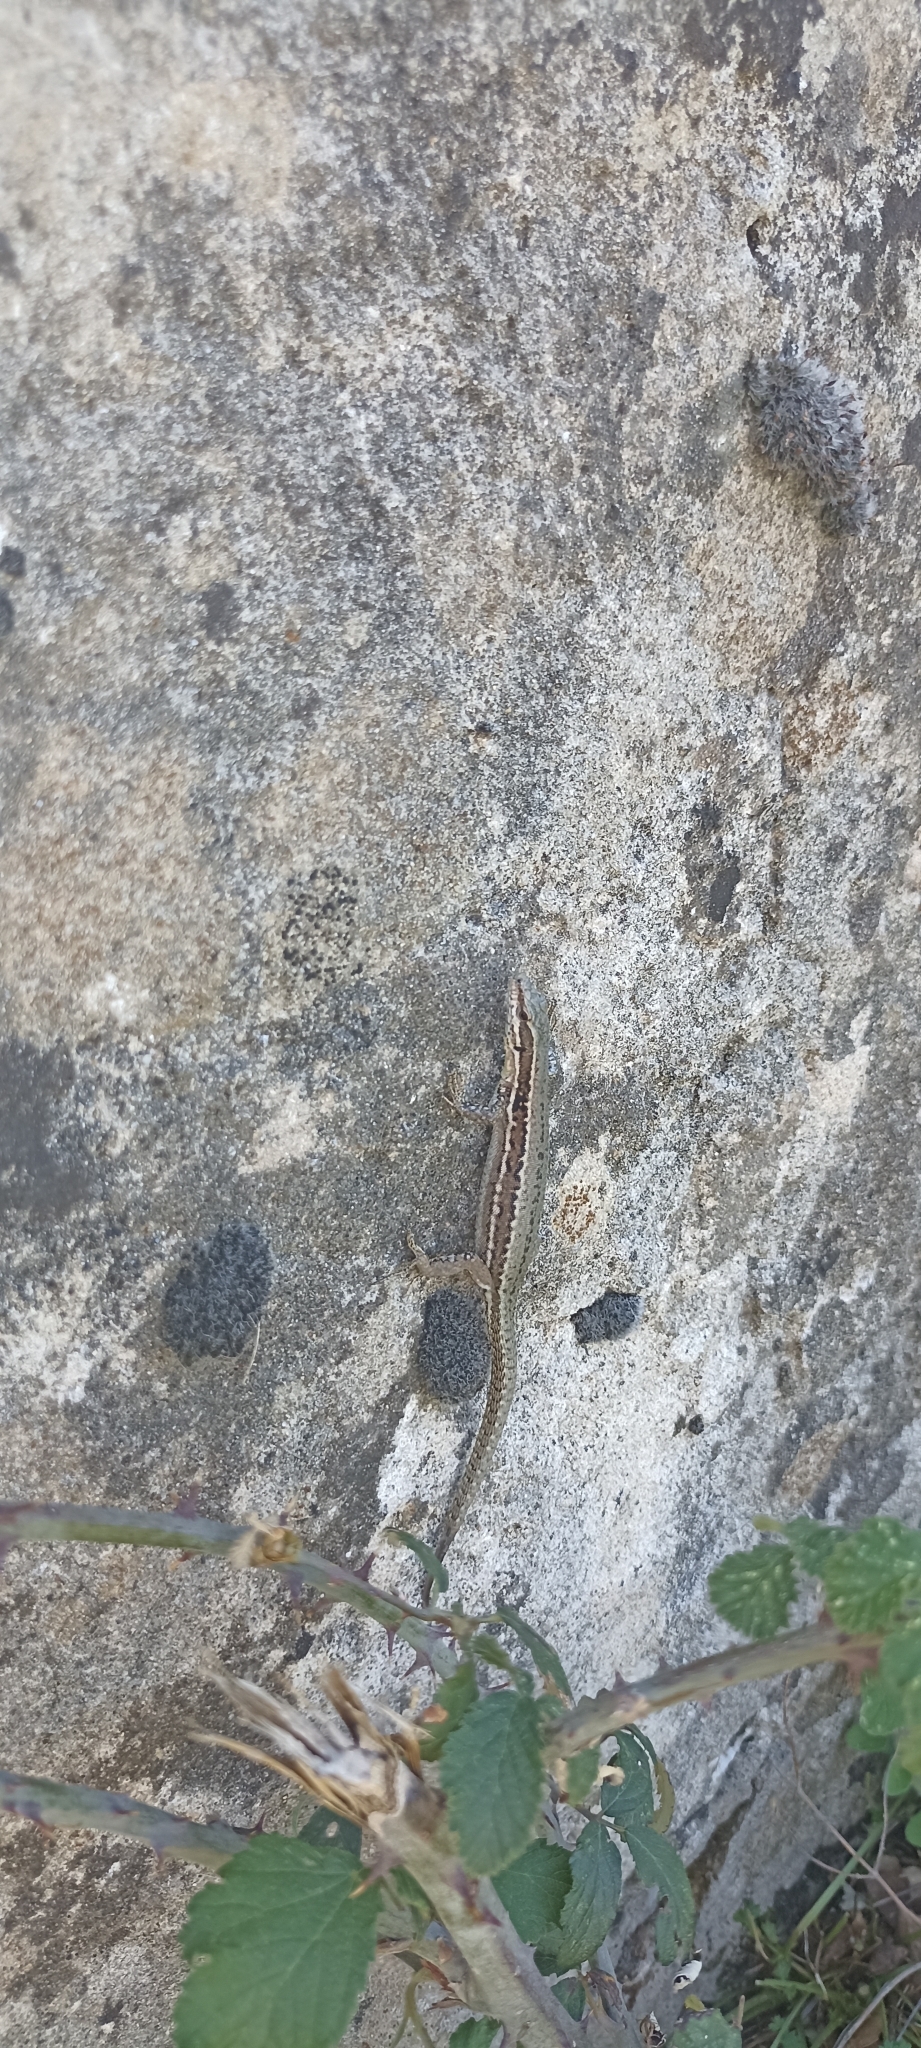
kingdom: Animalia
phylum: Chordata
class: Squamata
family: Lacertidae
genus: Podarcis
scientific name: Podarcis muralis
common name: Common wall lizard
